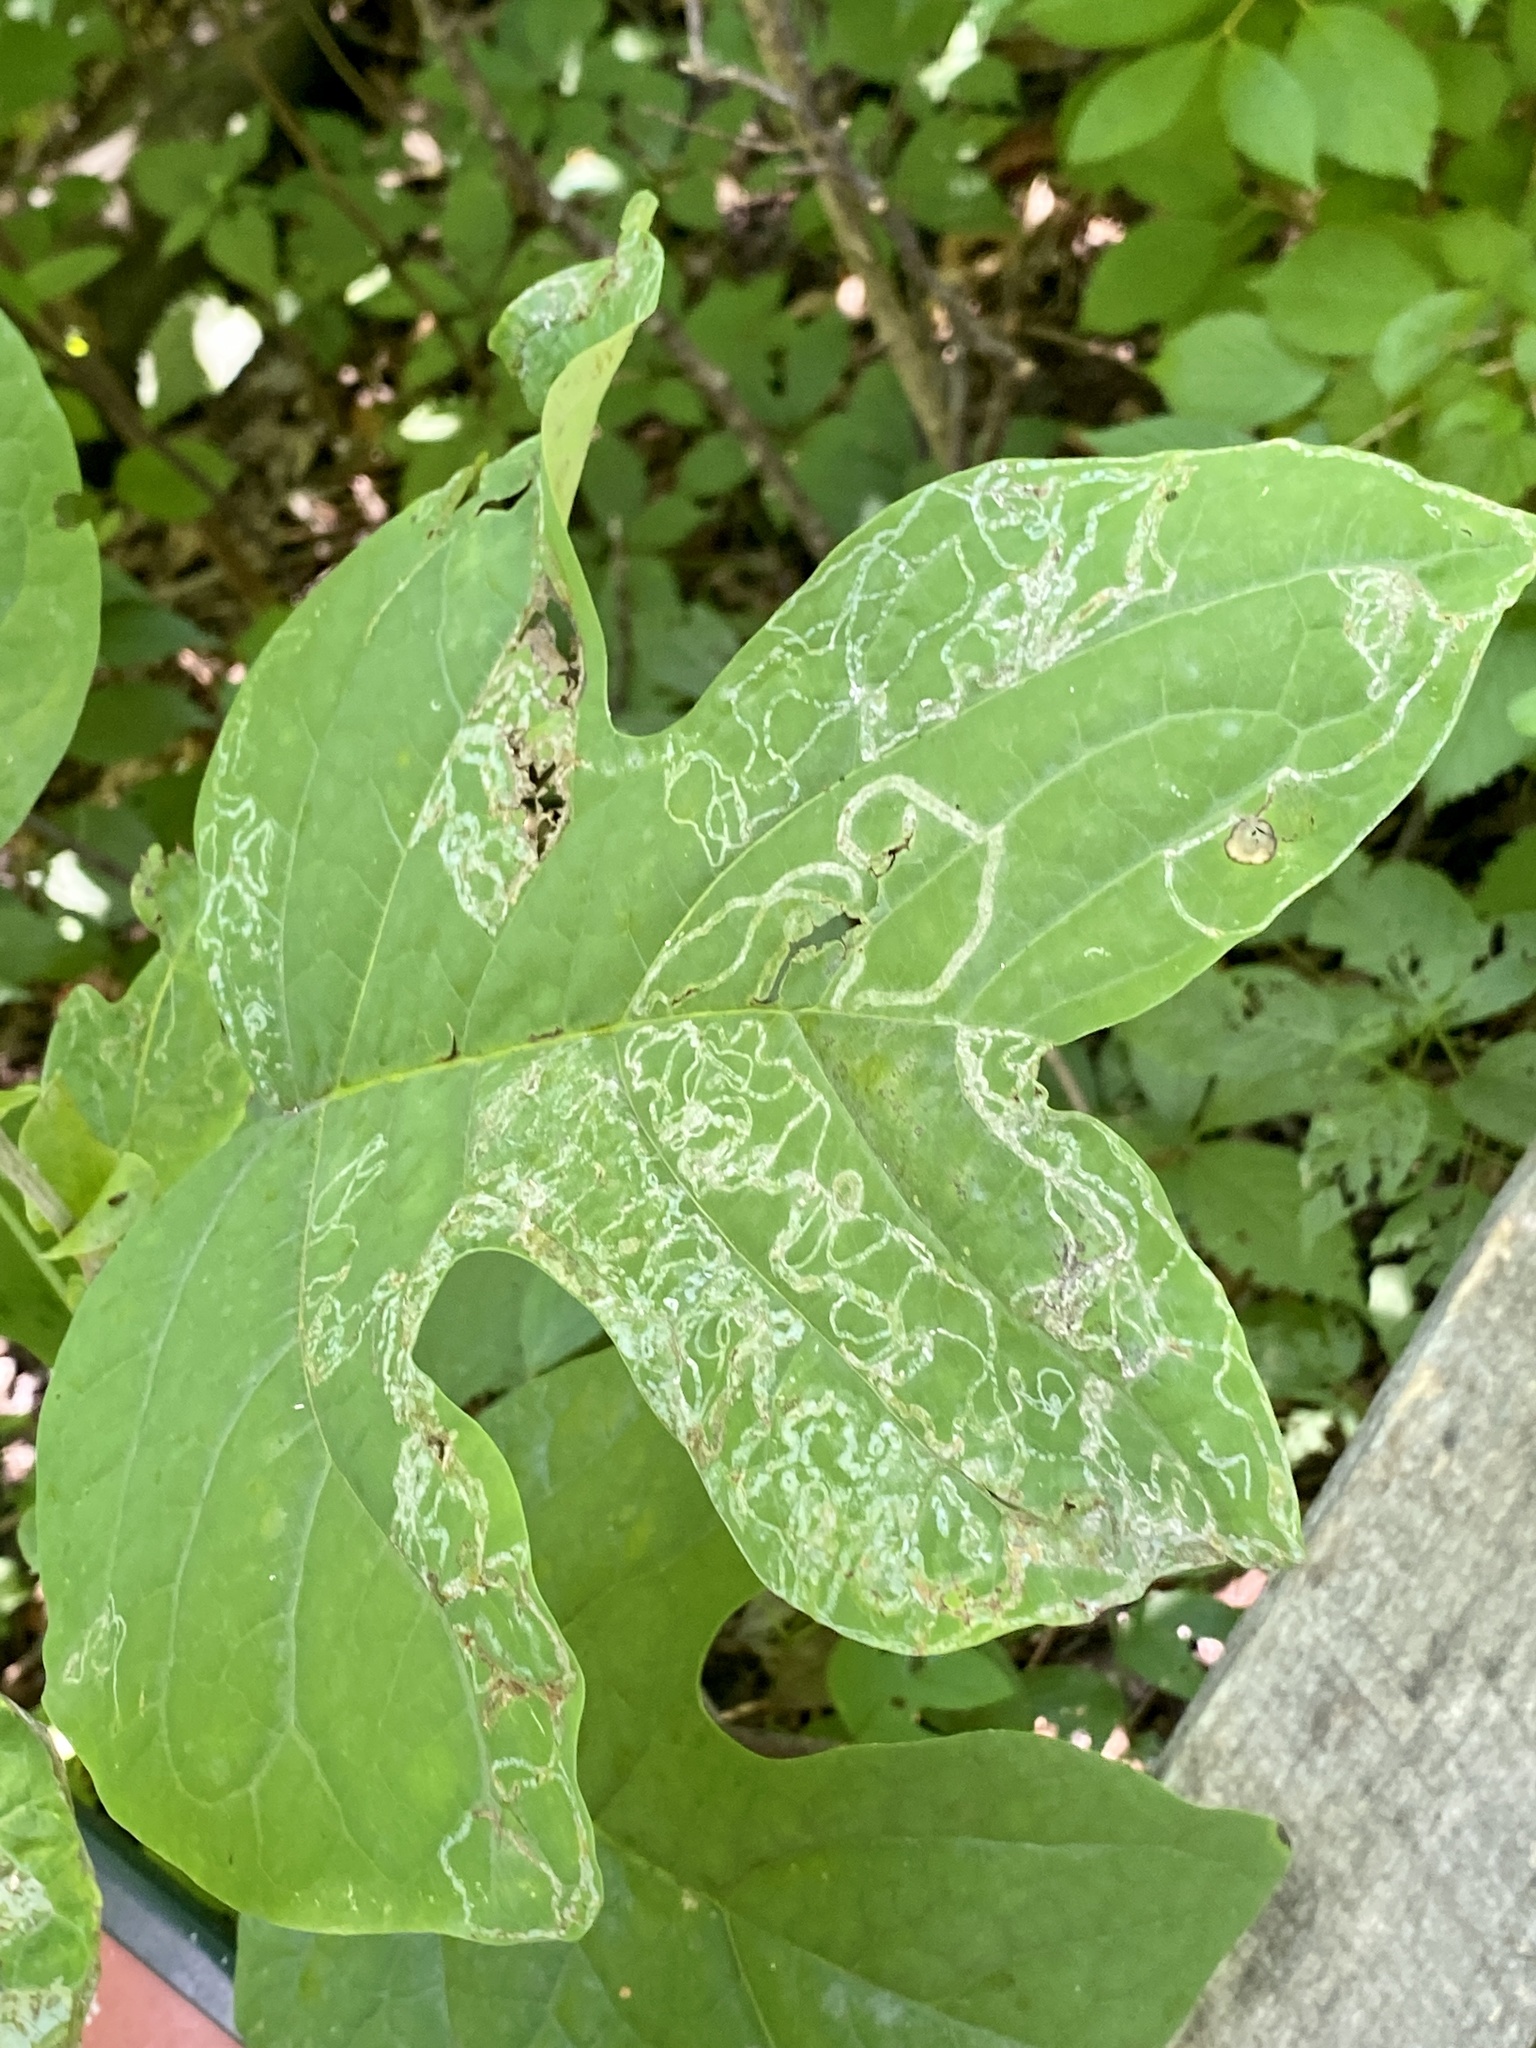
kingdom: Animalia
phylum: Arthropoda
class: Insecta
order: Lepidoptera
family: Gracillariidae
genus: Phyllocnistis
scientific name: Phyllocnistis liriodendronella
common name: Tulip tree leaf miner
